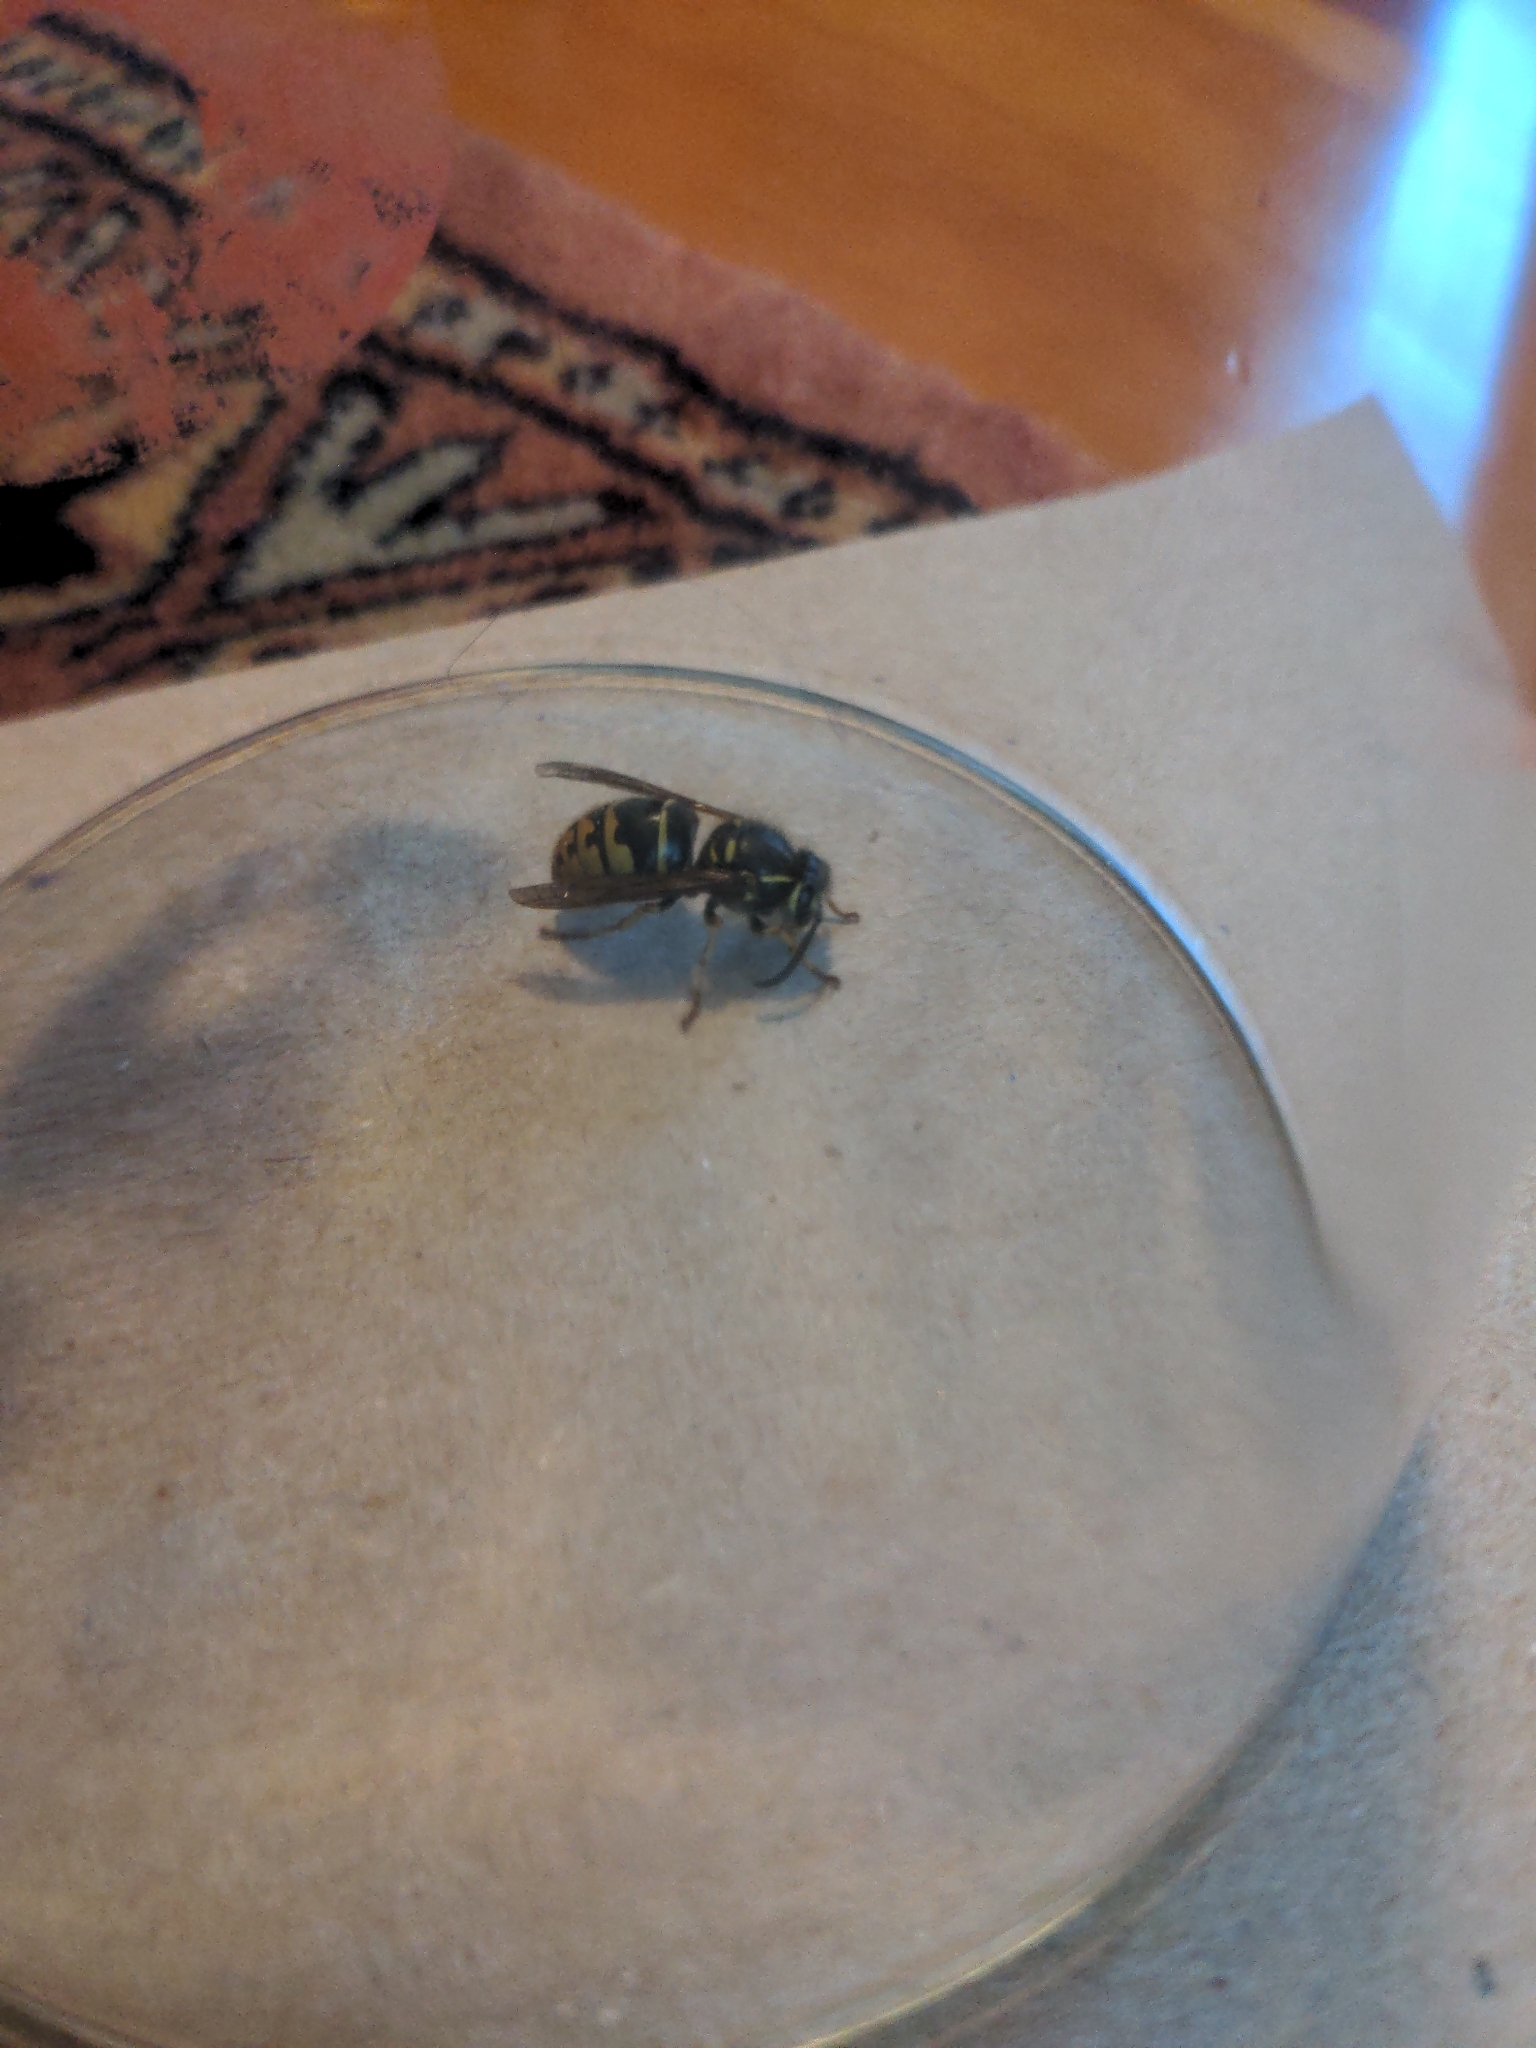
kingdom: Animalia
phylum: Arthropoda
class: Insecta
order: Hymenoptera
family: Vespidae
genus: Vespula
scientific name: Vespula alascensis
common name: Alaska yellowjacket
